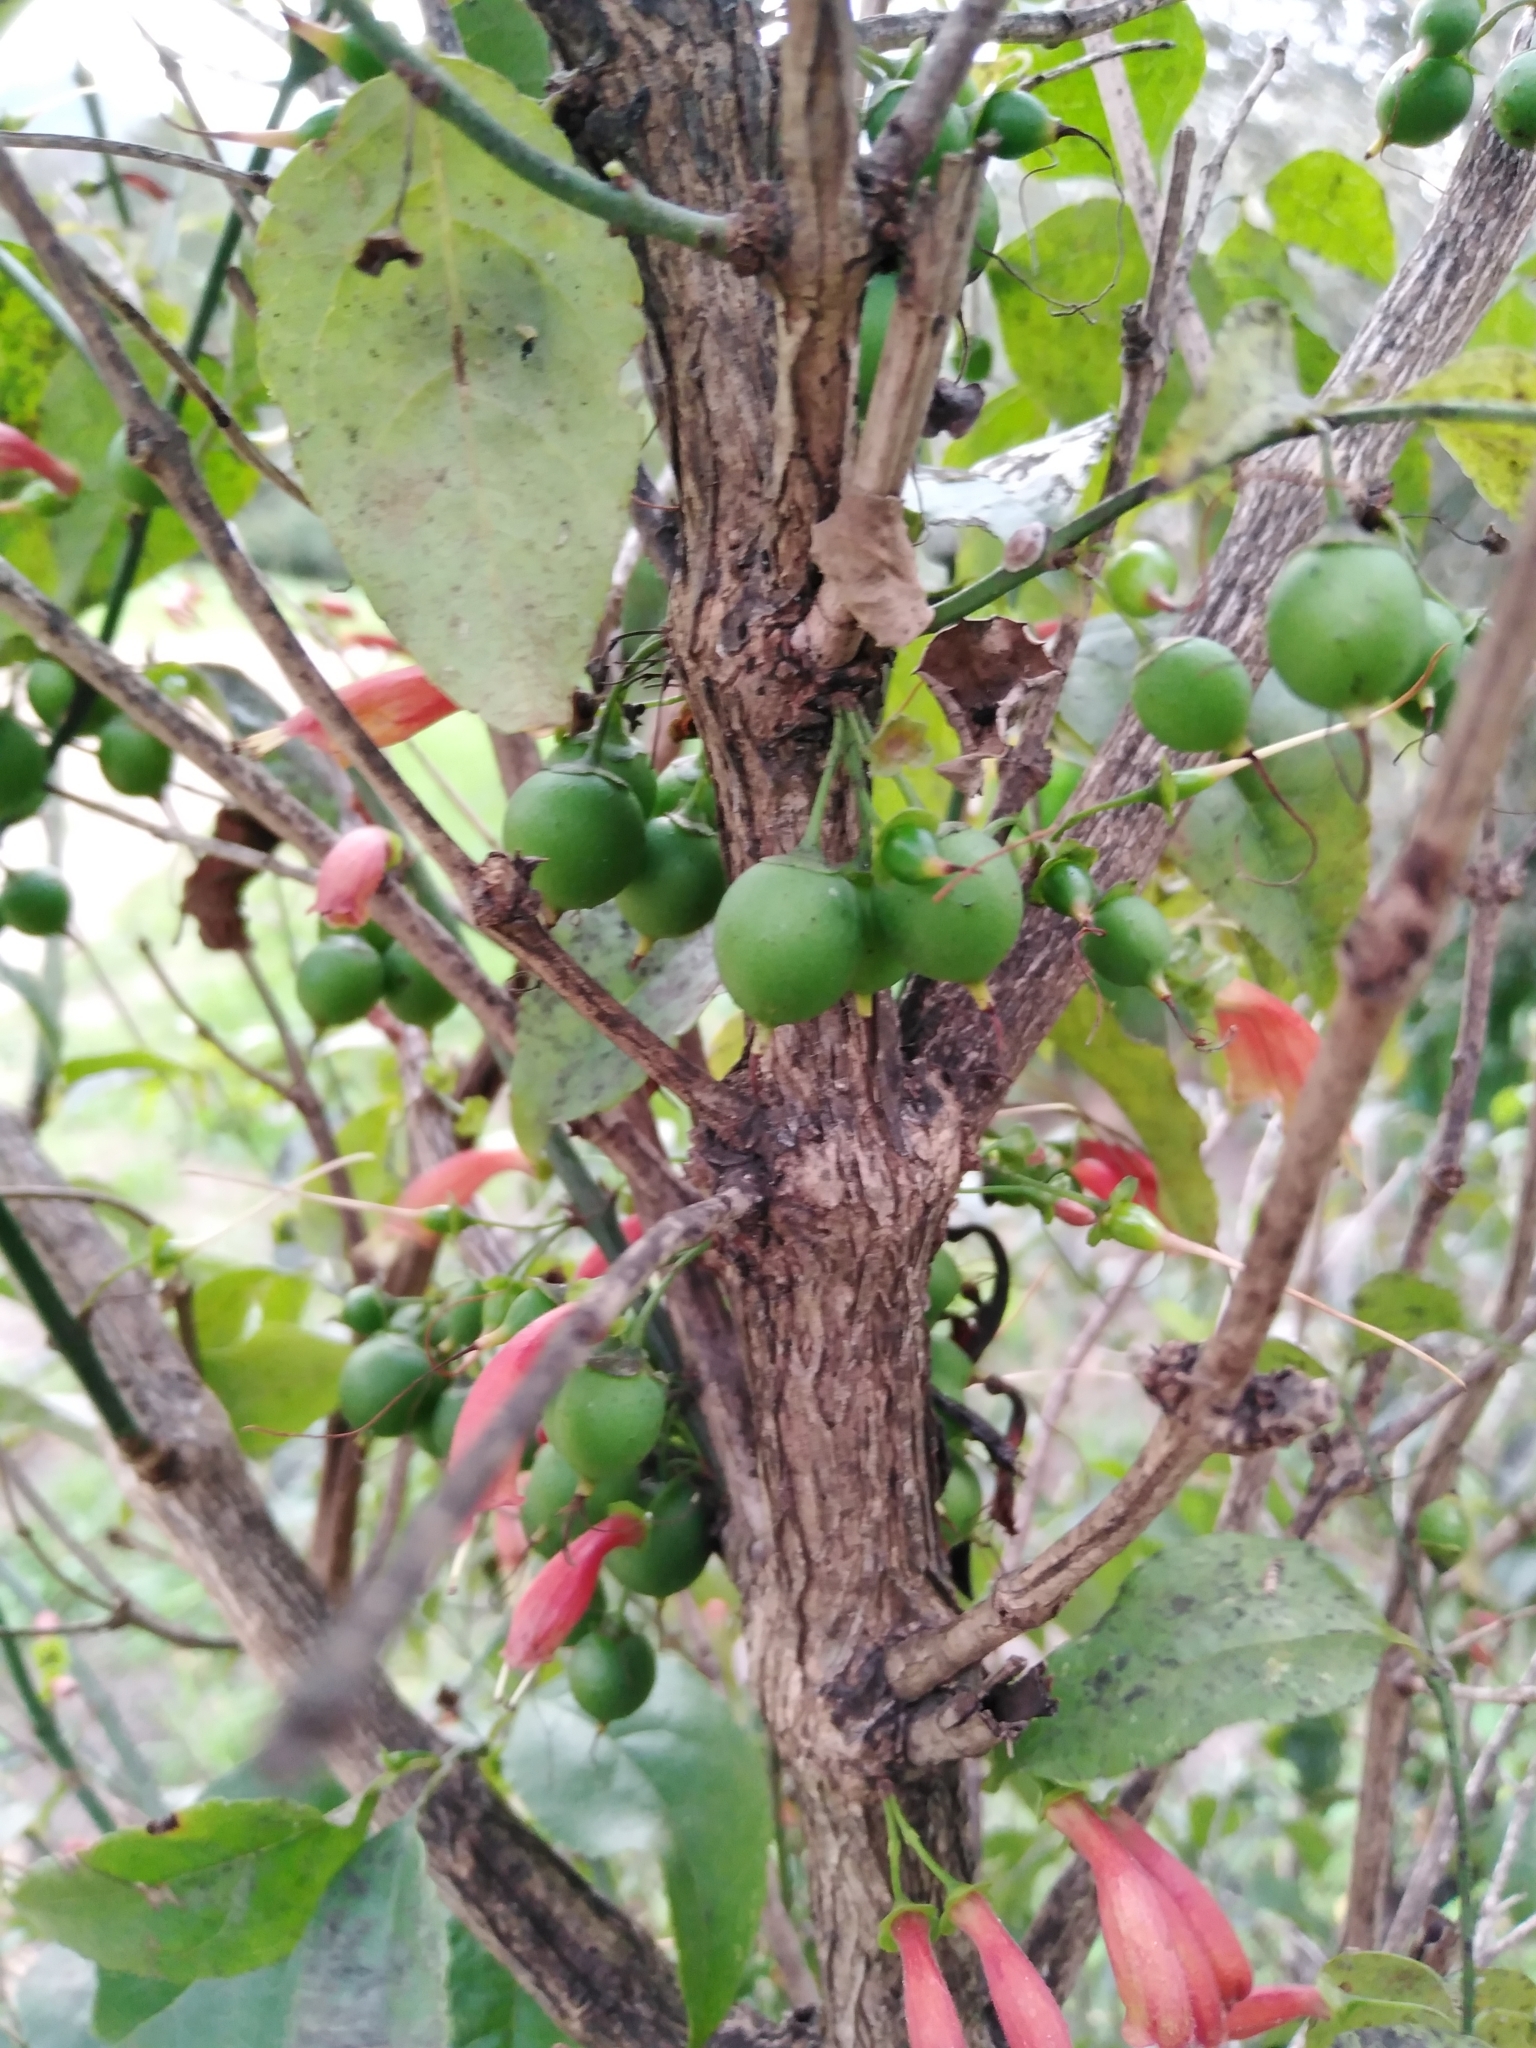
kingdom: Plantae
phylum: Tracheophyta
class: Magnoliopsida
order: Lamiales
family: Stilbaceae
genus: Halleria
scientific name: Halleria lucida
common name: Tree fuschia
